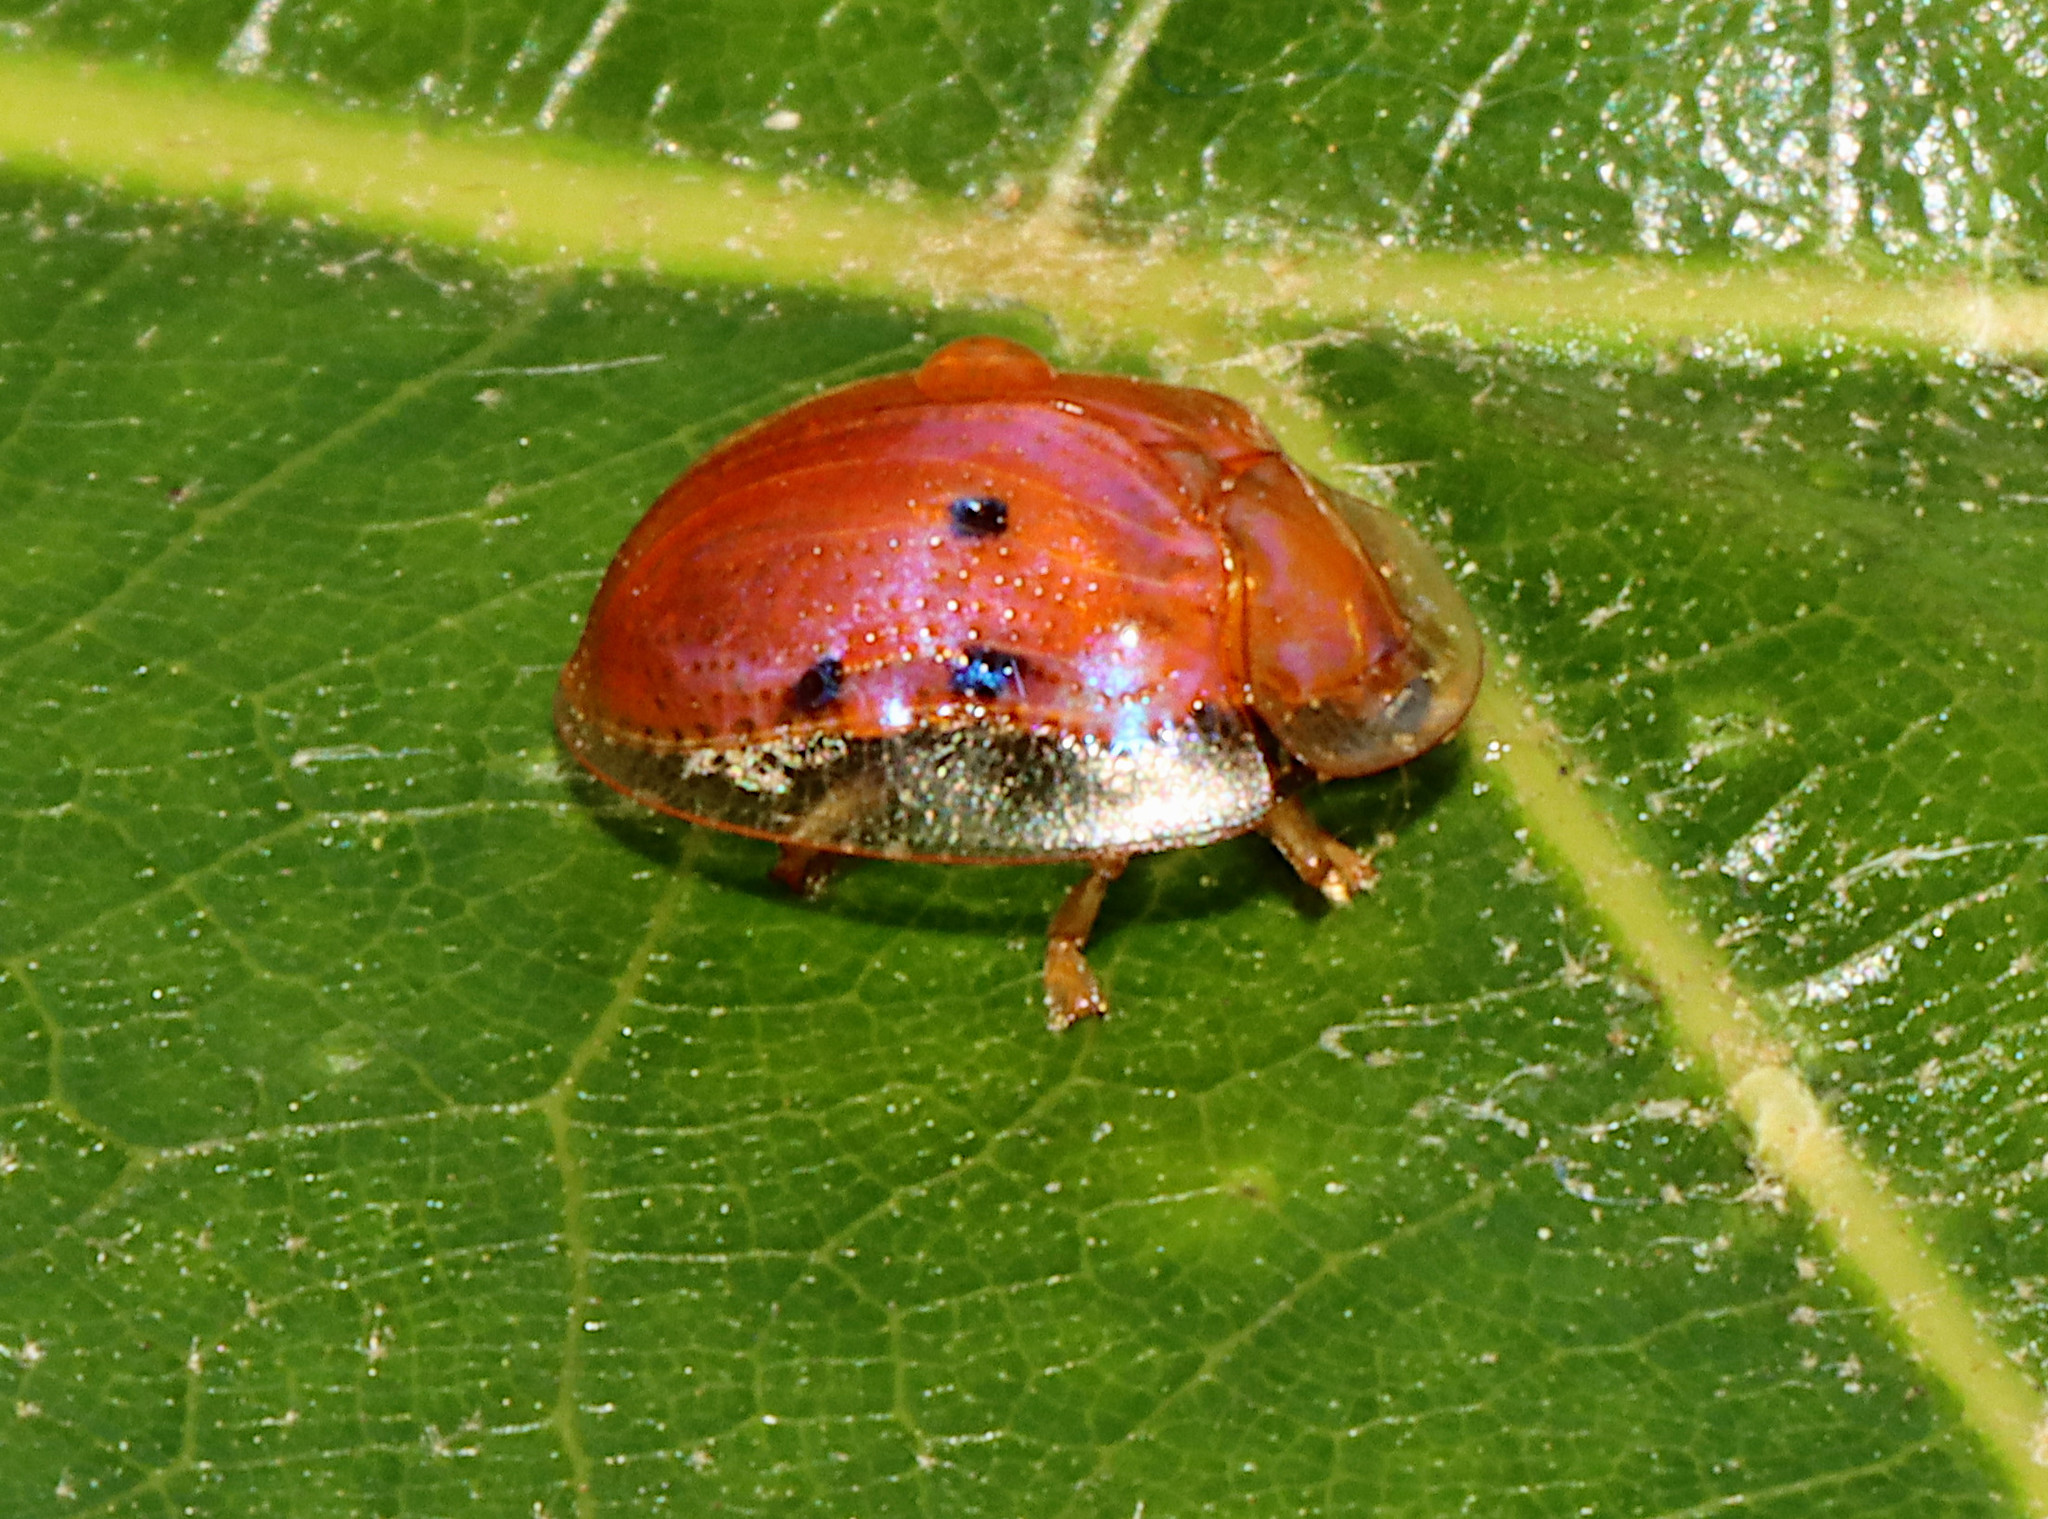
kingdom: Animalia
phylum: Arthropoda
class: Insecta
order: Coleoptera
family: Chrysomelidae
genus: Charidotella
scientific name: Charidotella sexpunctata
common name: Golden tortoise beetle
